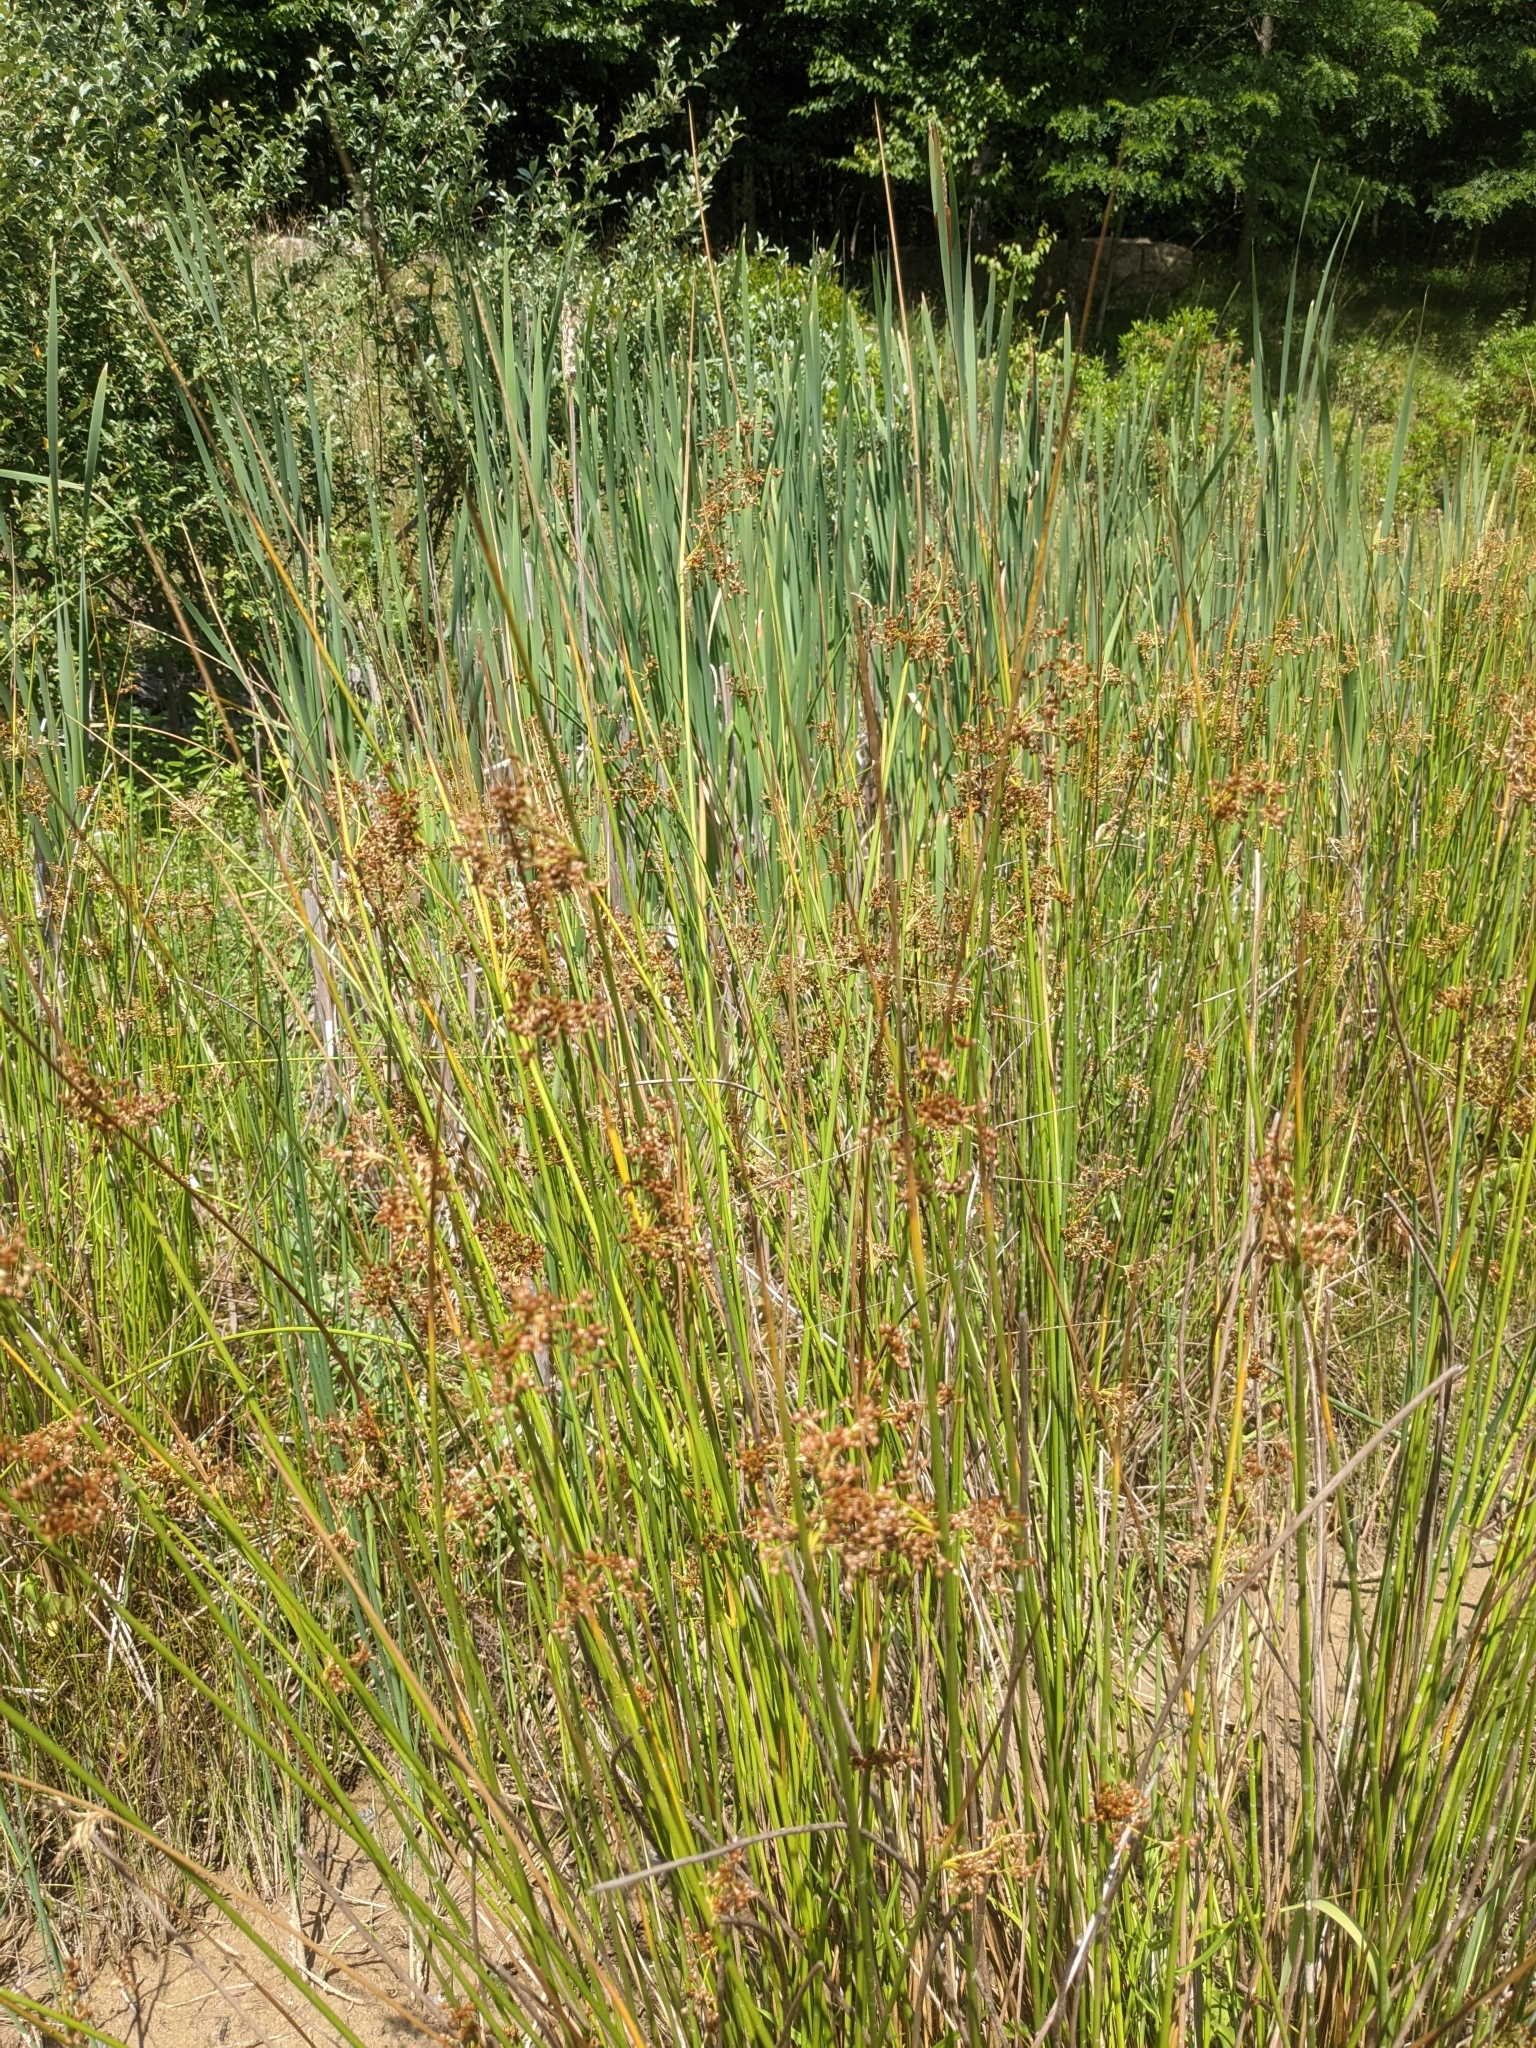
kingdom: Plantae
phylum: Tracheophyta
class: Liliopsida
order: Poales
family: Juncaceae
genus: Juncus
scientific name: Juncus effusus
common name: Soft rush
